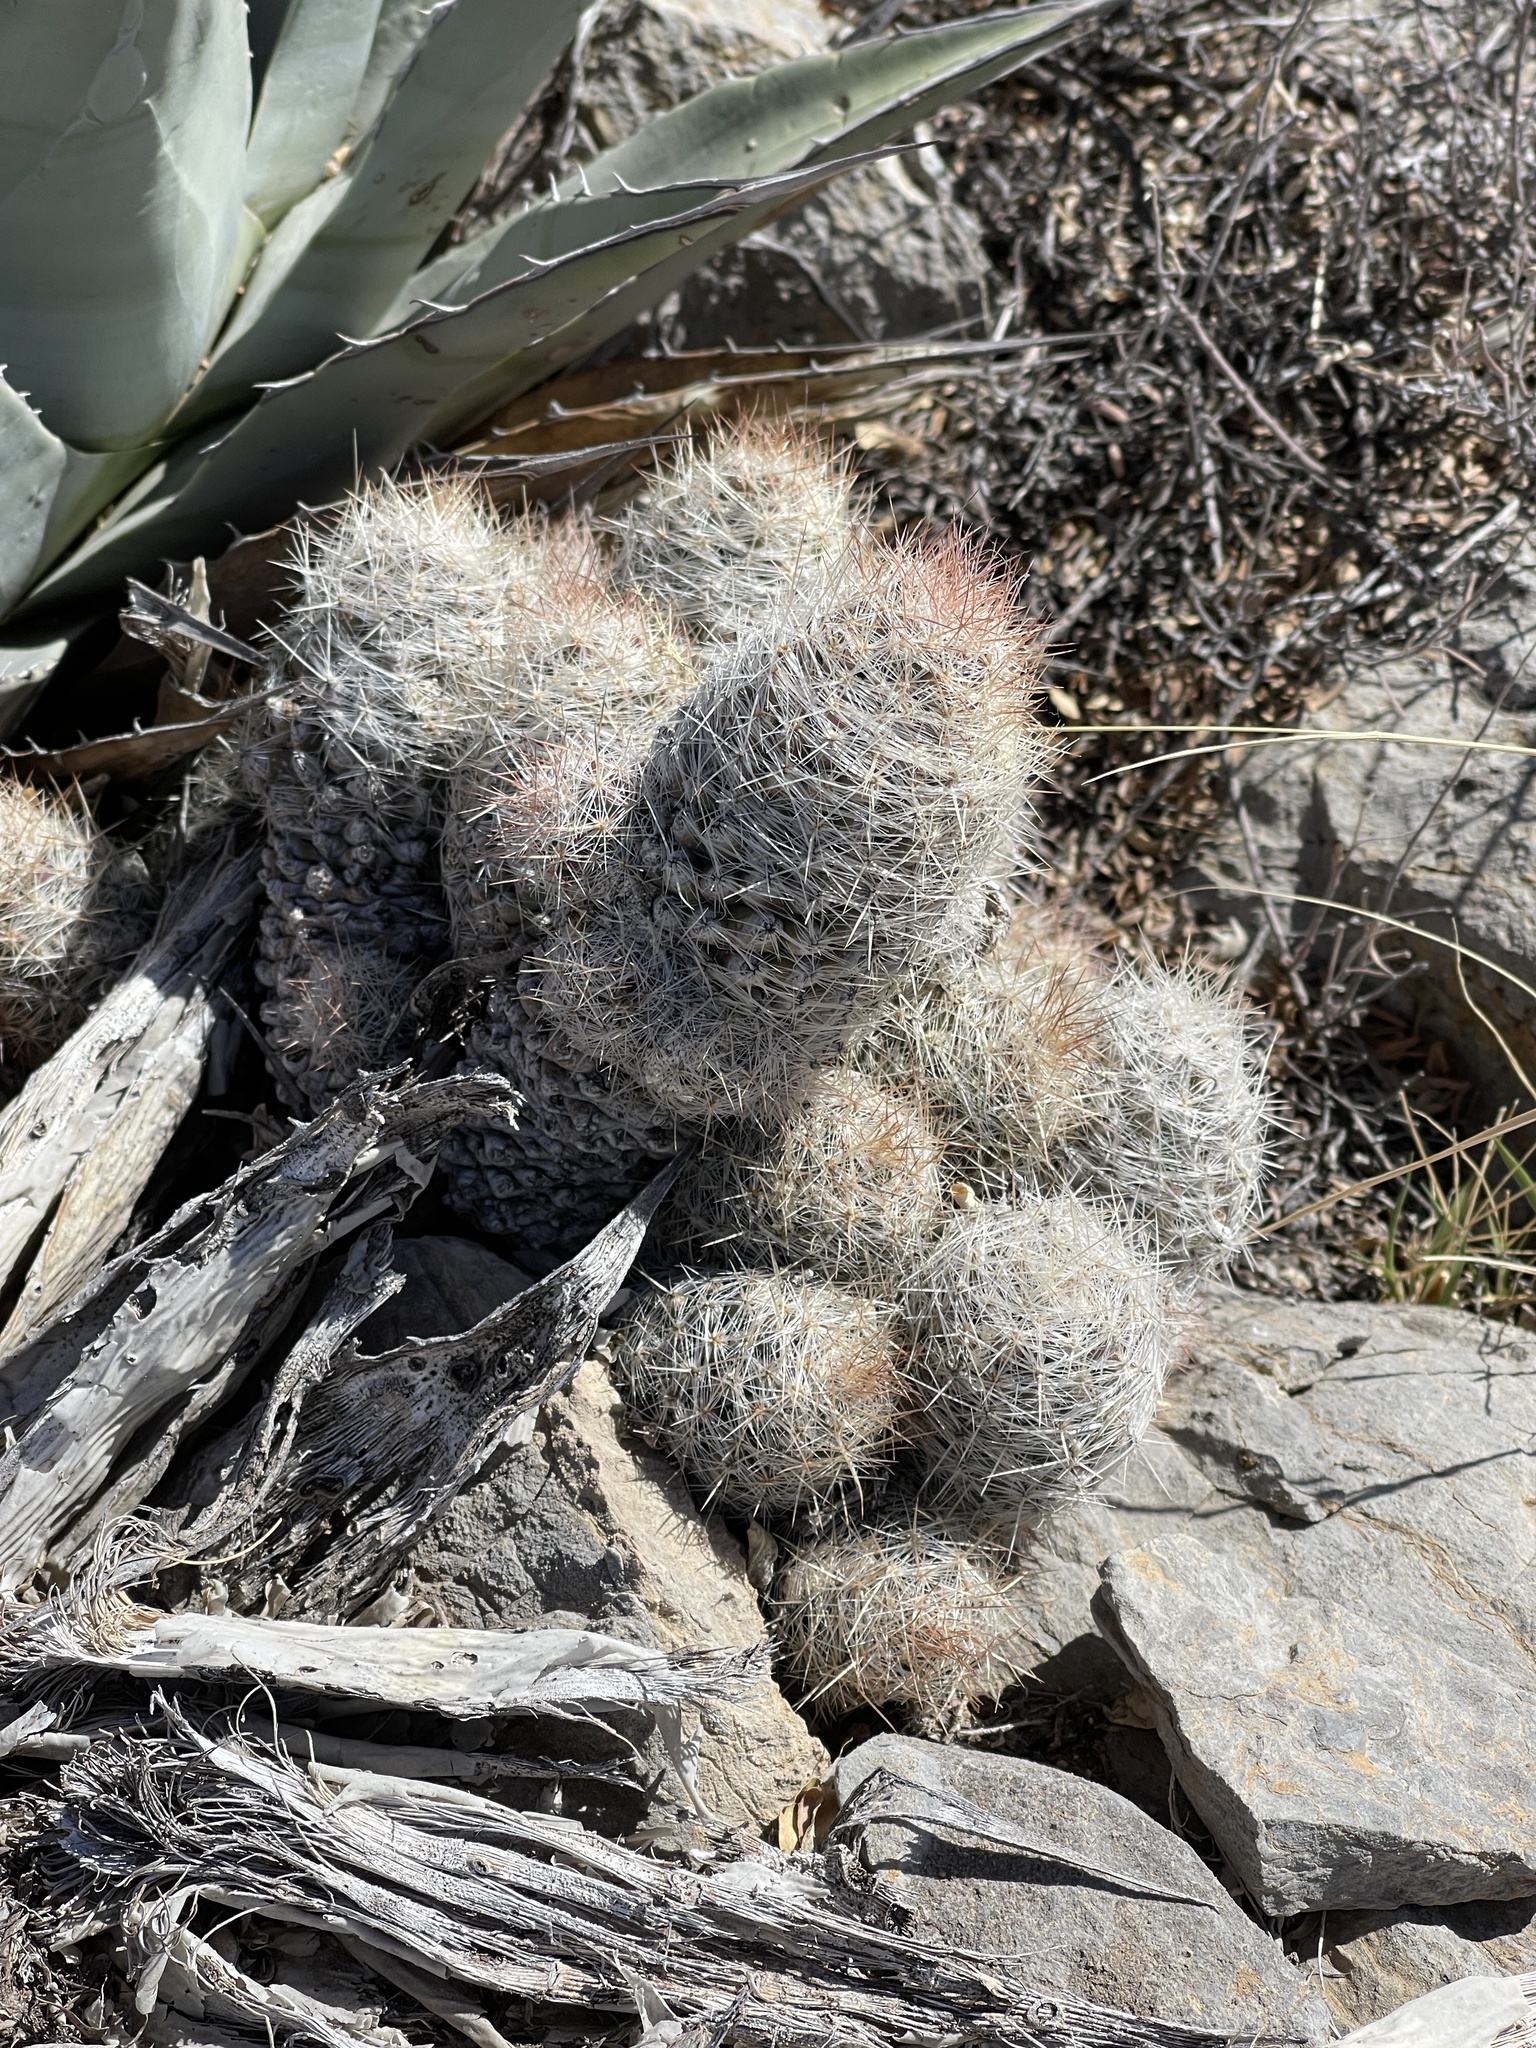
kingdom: Plantae
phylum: Tracheophyta
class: Magnoliopsida
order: Caryophyllales
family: Cactaceae
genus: Pelecyphora
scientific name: Pelecyphora tuberculosa
